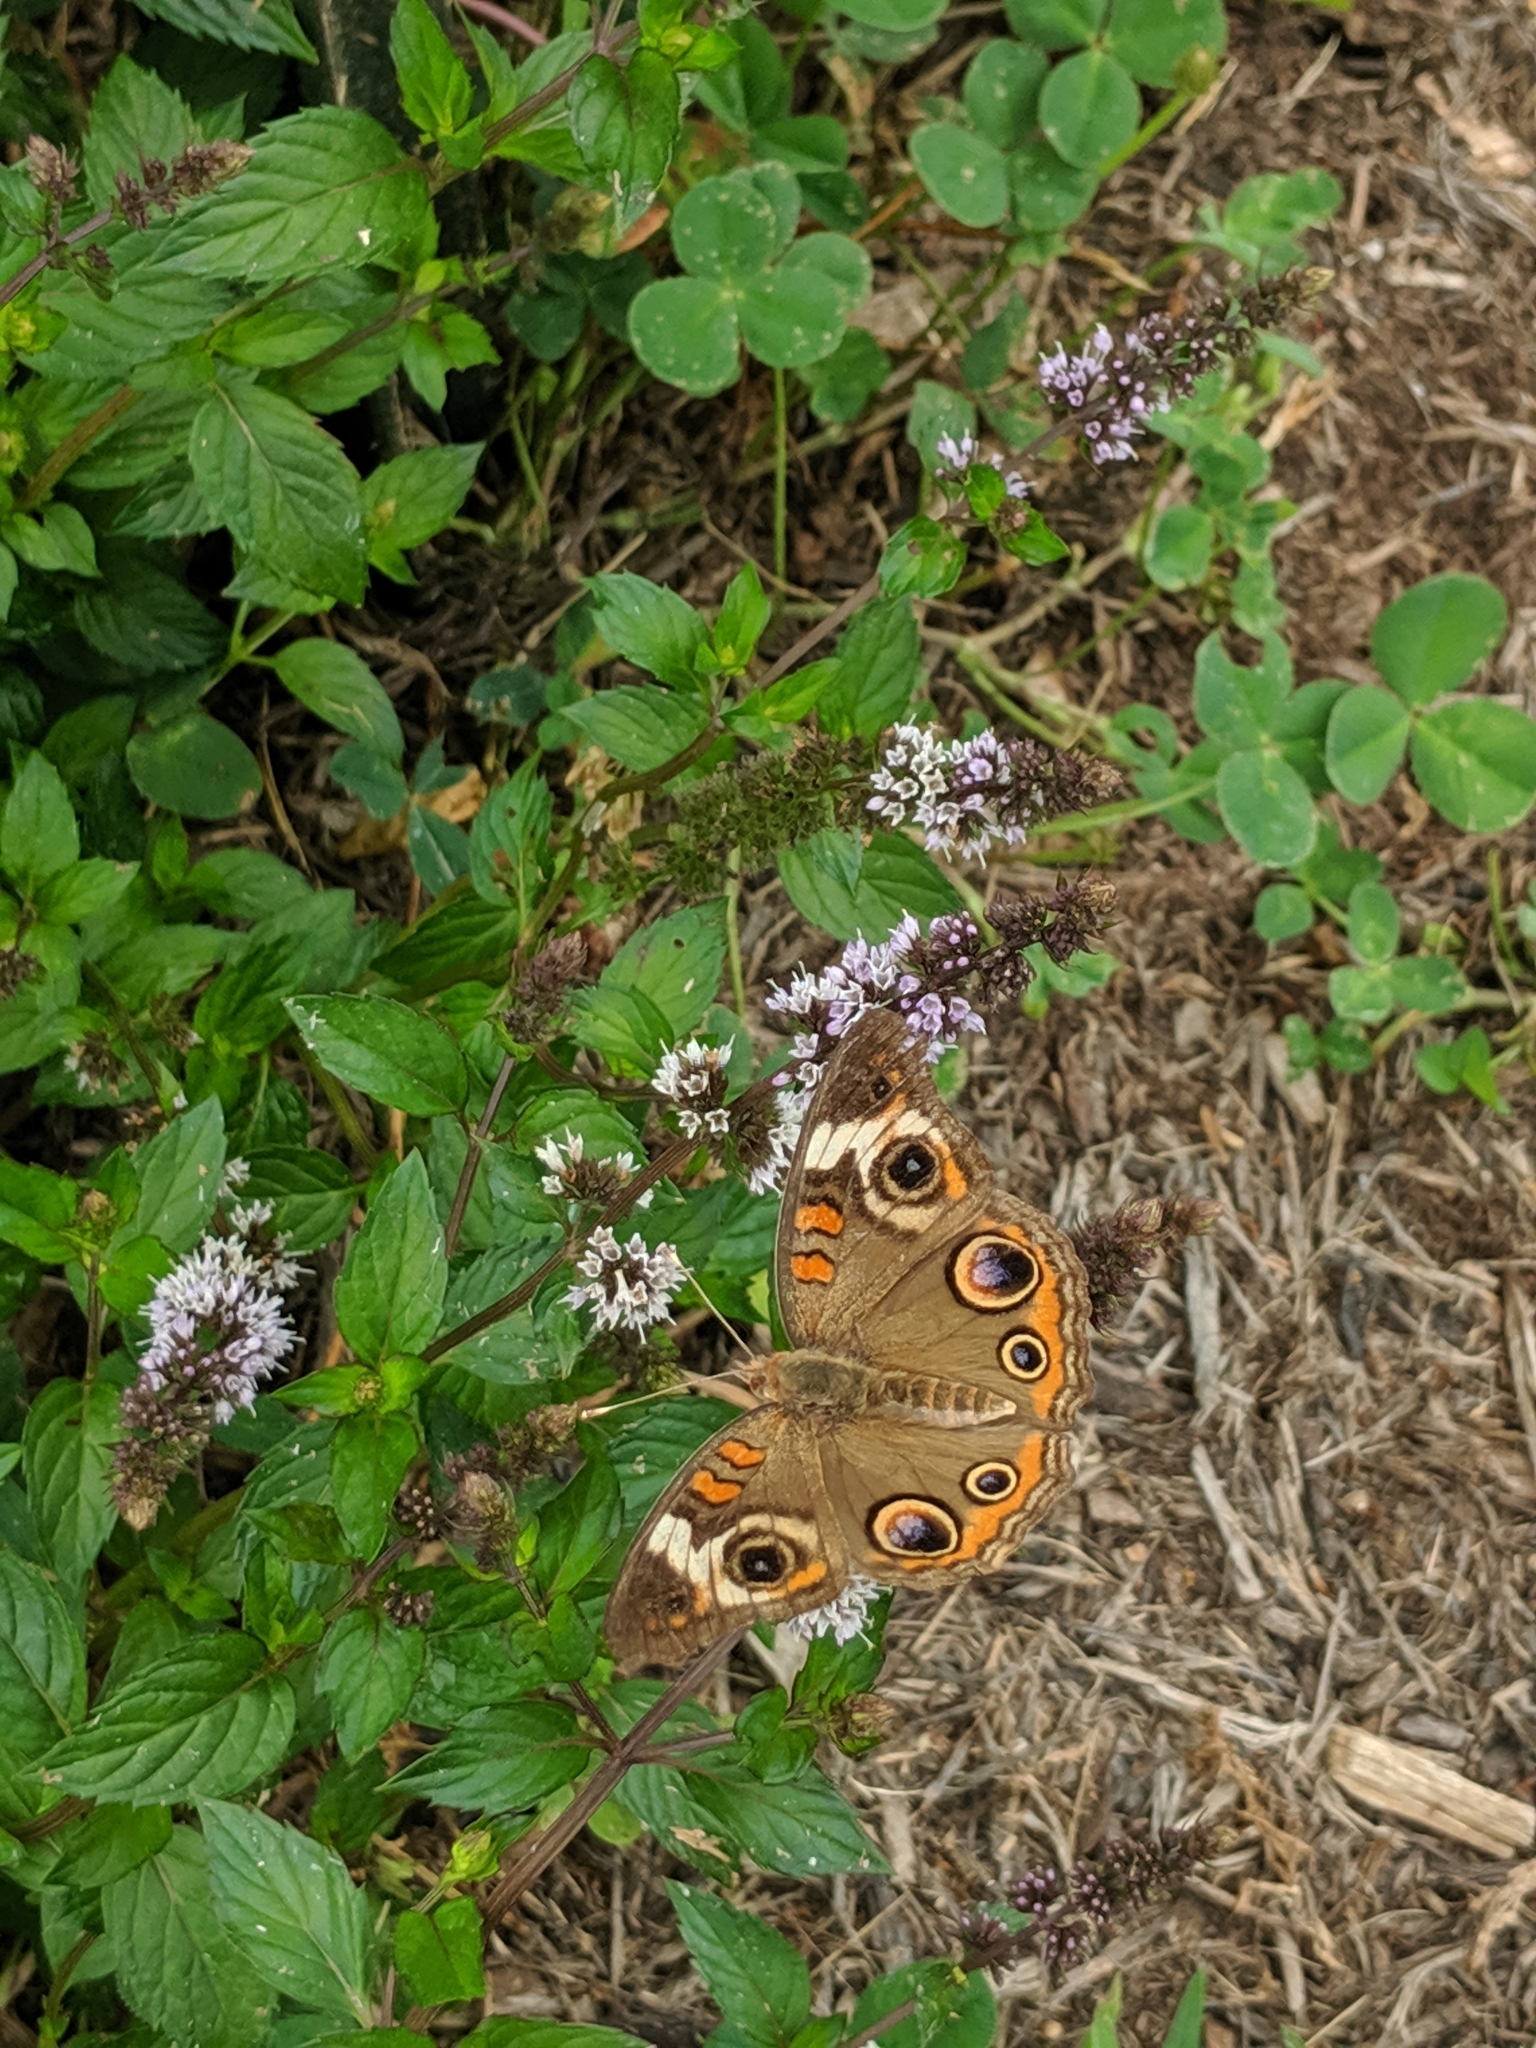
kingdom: Animalia
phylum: Arthropoda
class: Insecta
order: Lepidoptera
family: Nymphalidae
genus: Junonia
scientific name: Junonia coenia
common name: Common buckeye
